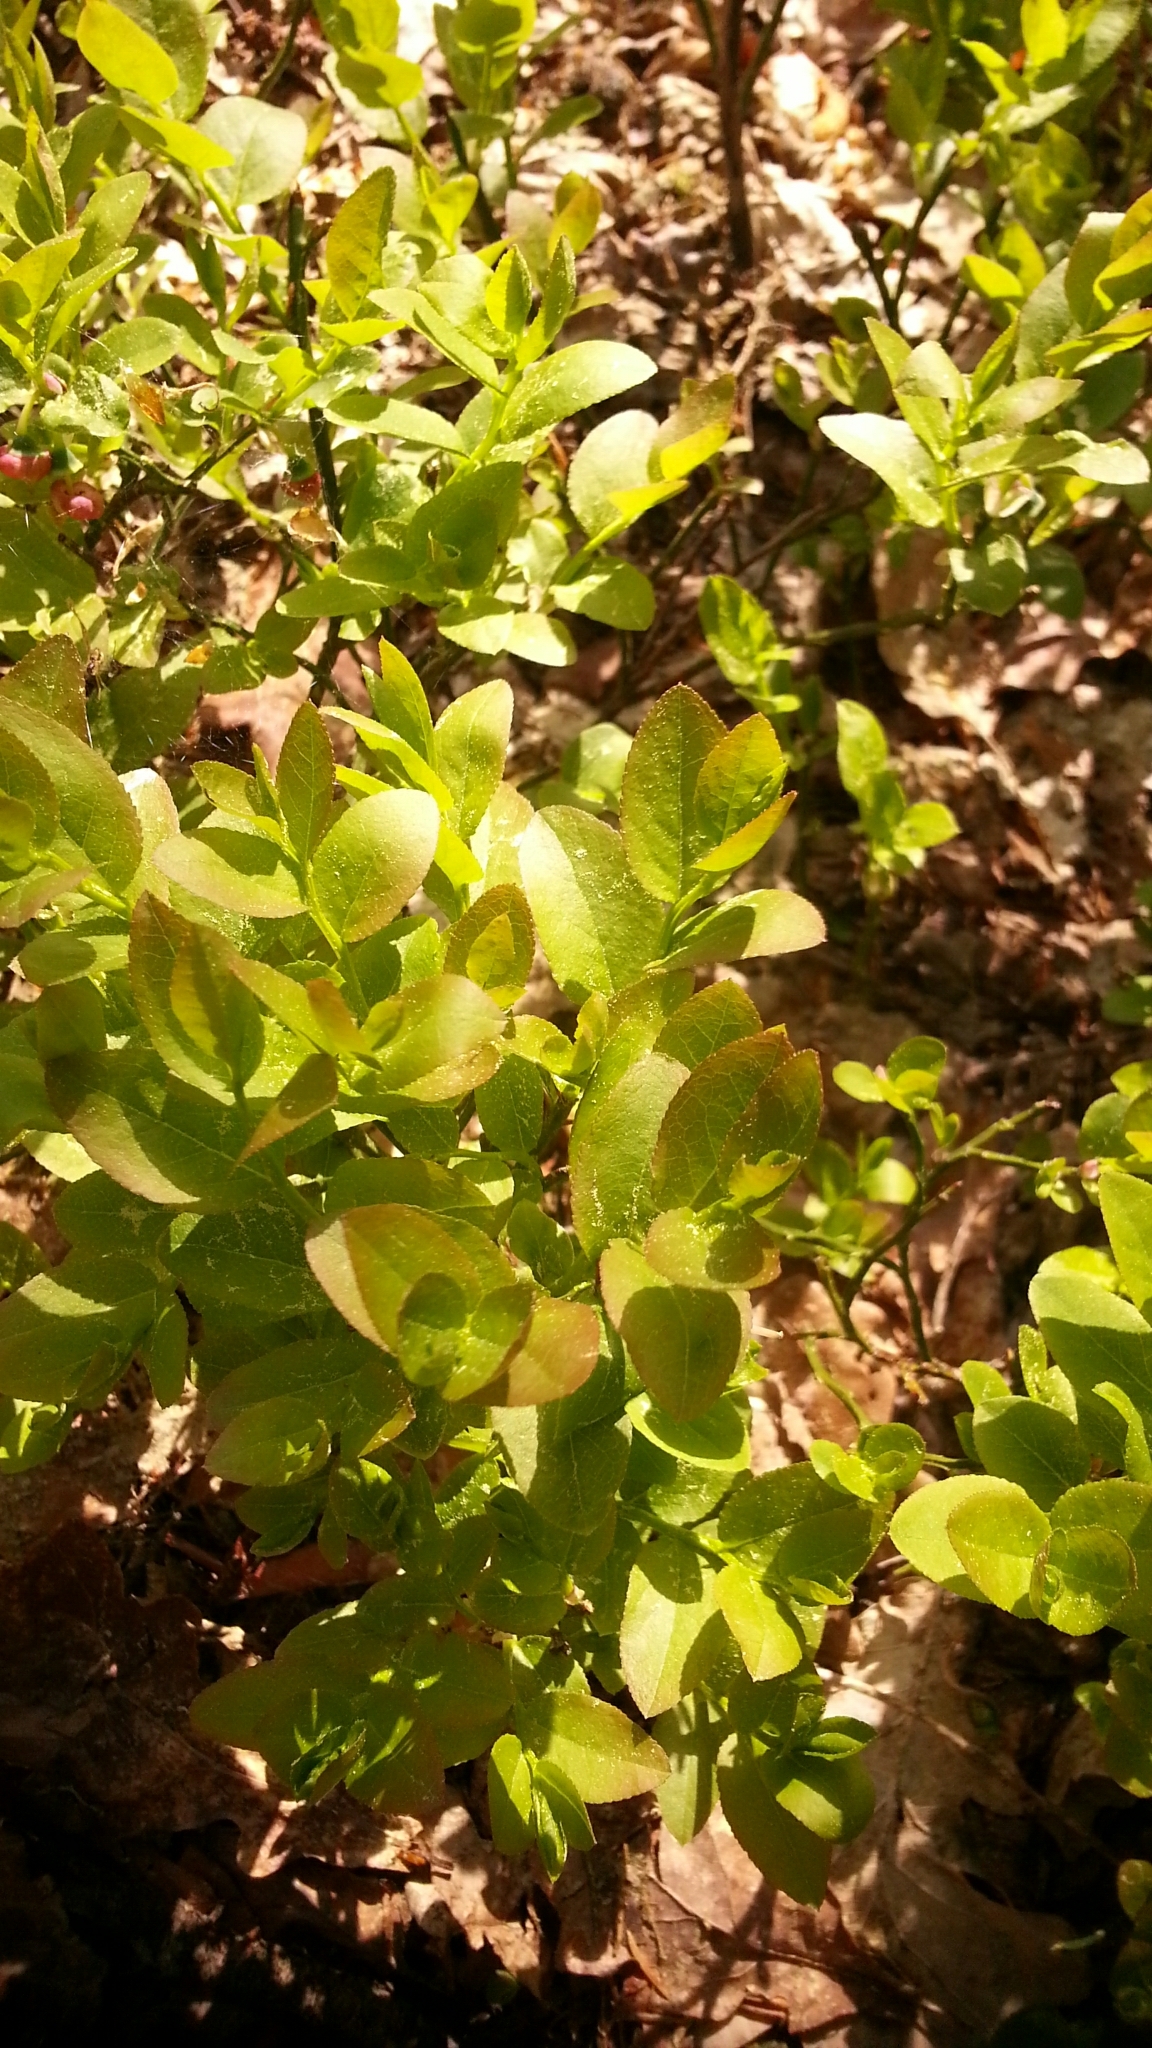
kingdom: Plantae
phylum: Tracheophyta
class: Magnoliopsida
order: Ericales
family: Ericaceae
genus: Vaccinium
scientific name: Vaccinium myrtillus
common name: Bilberry
